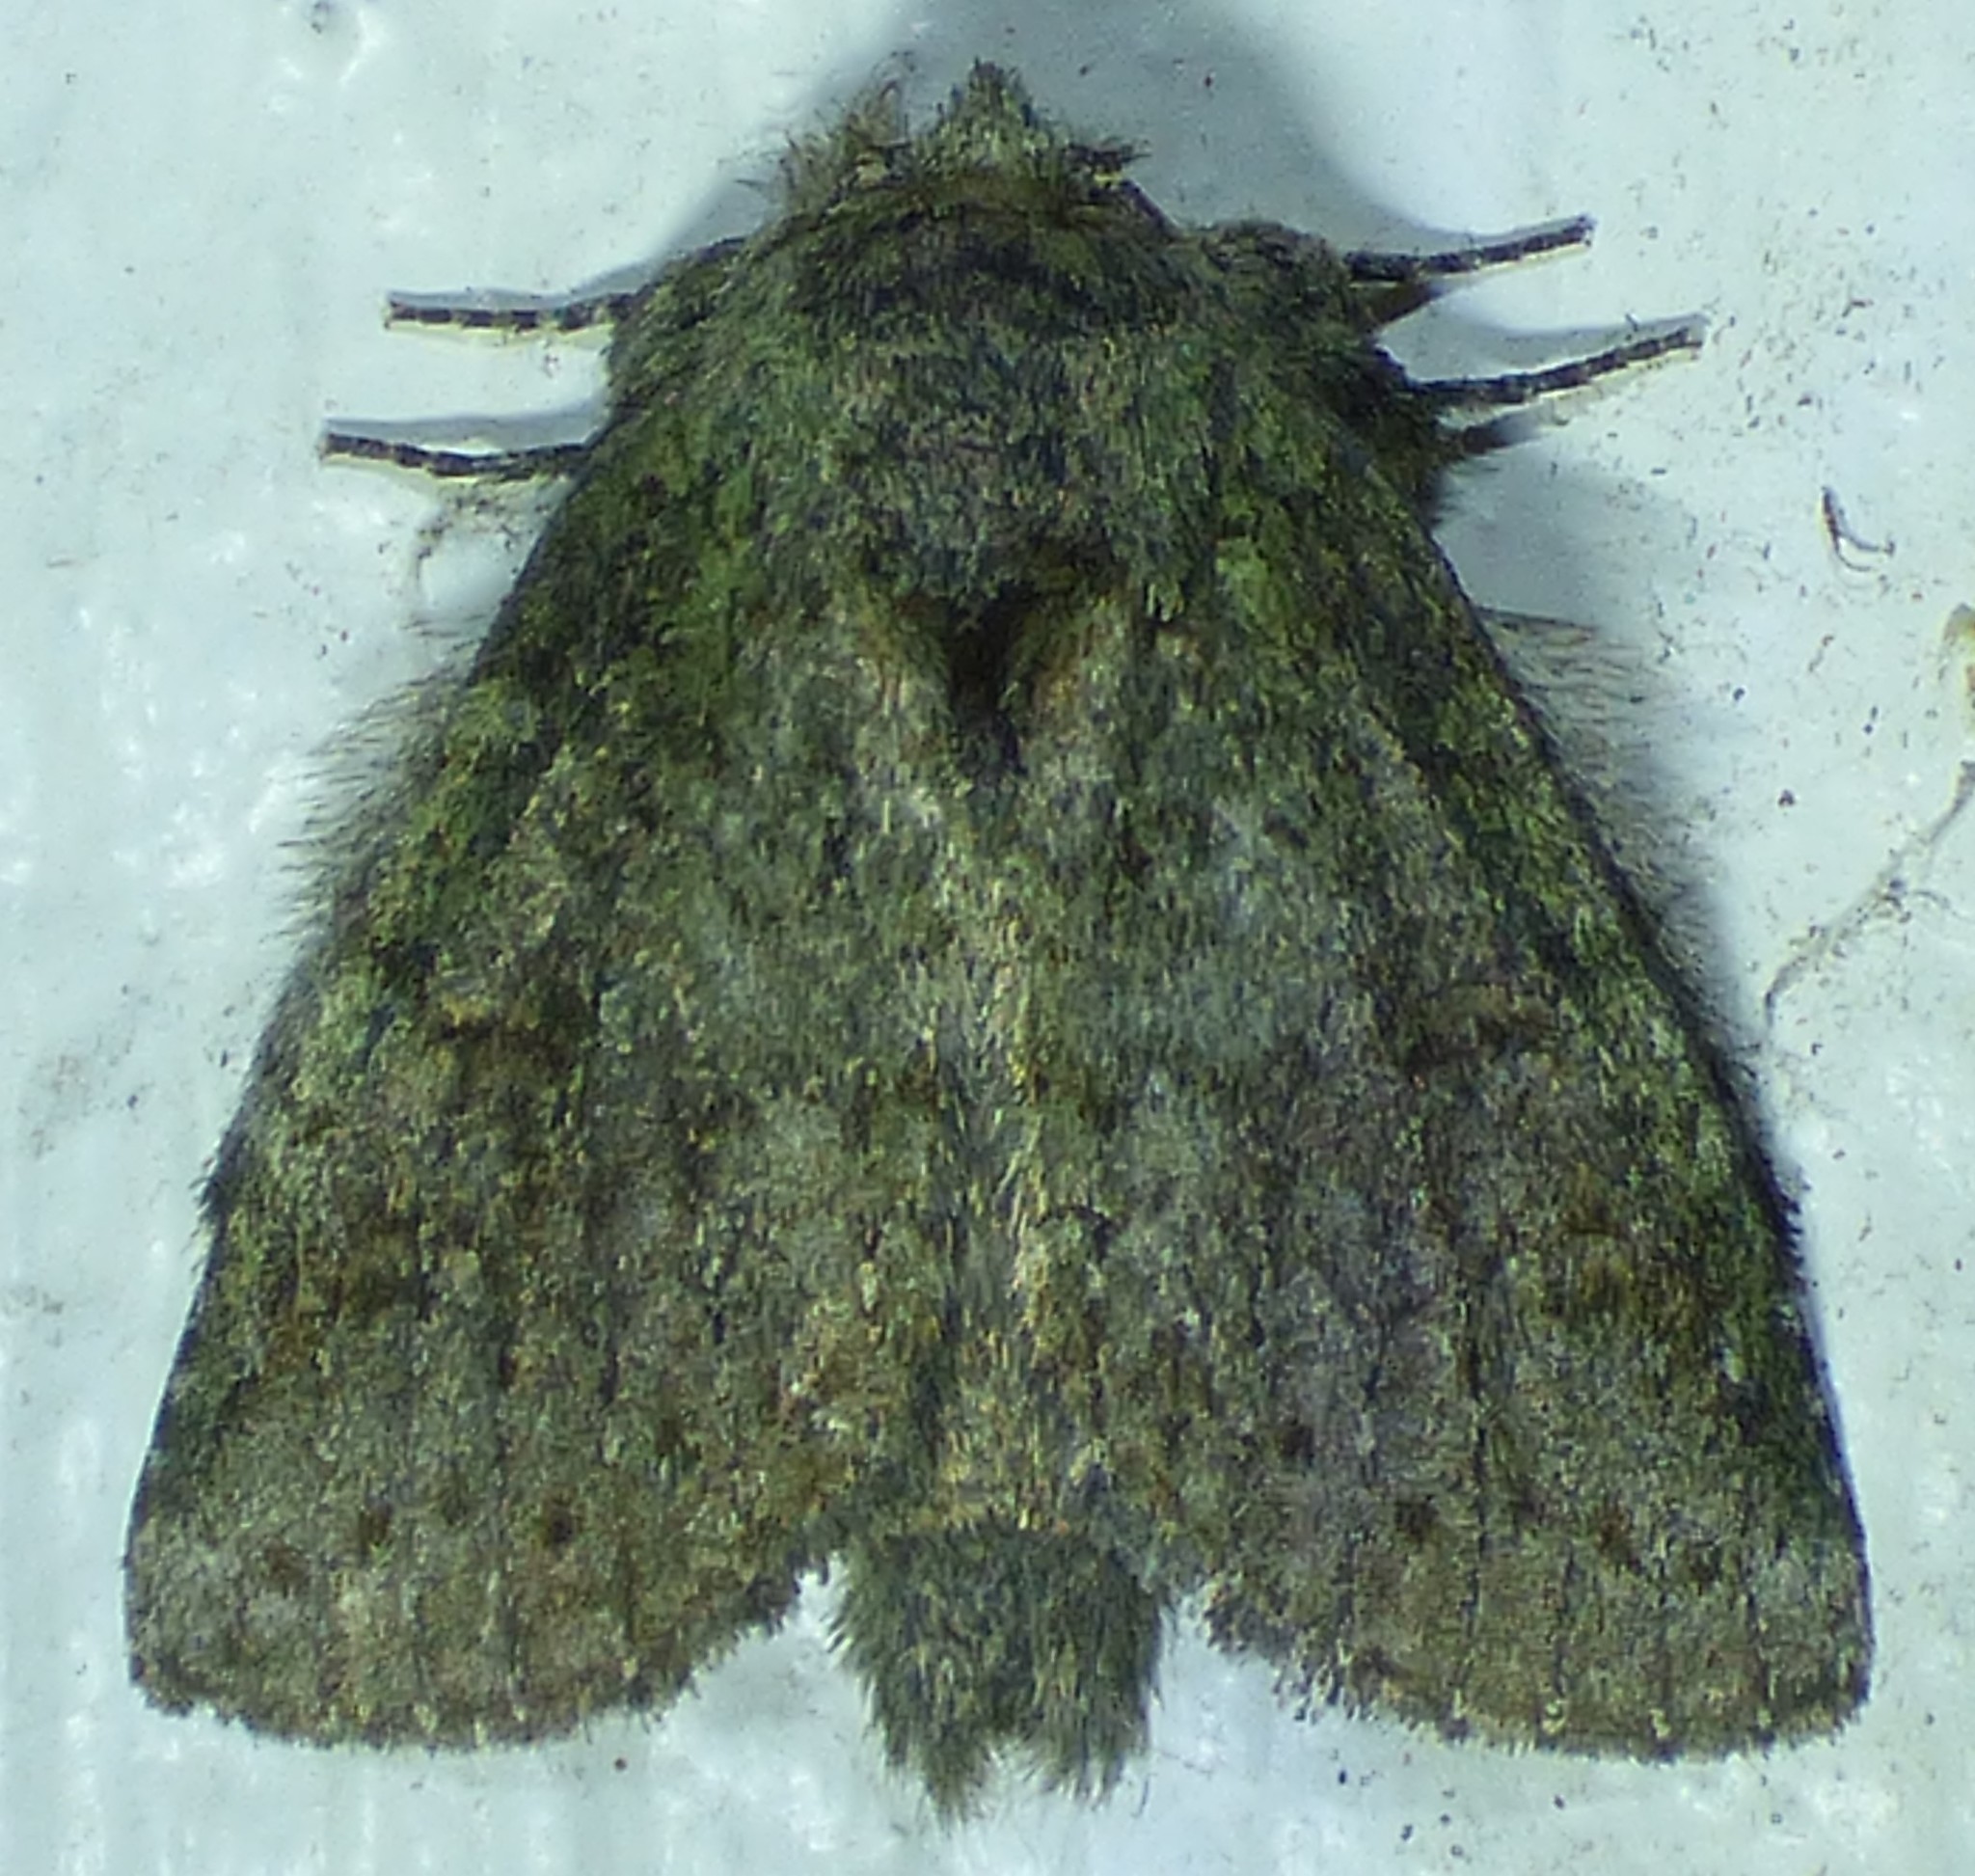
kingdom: Animalia
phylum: Arthropoda
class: Insecta
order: Lepidoptera
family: Notodontidae
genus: Disphragis
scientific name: Disphragis Cecrita guttivitta
